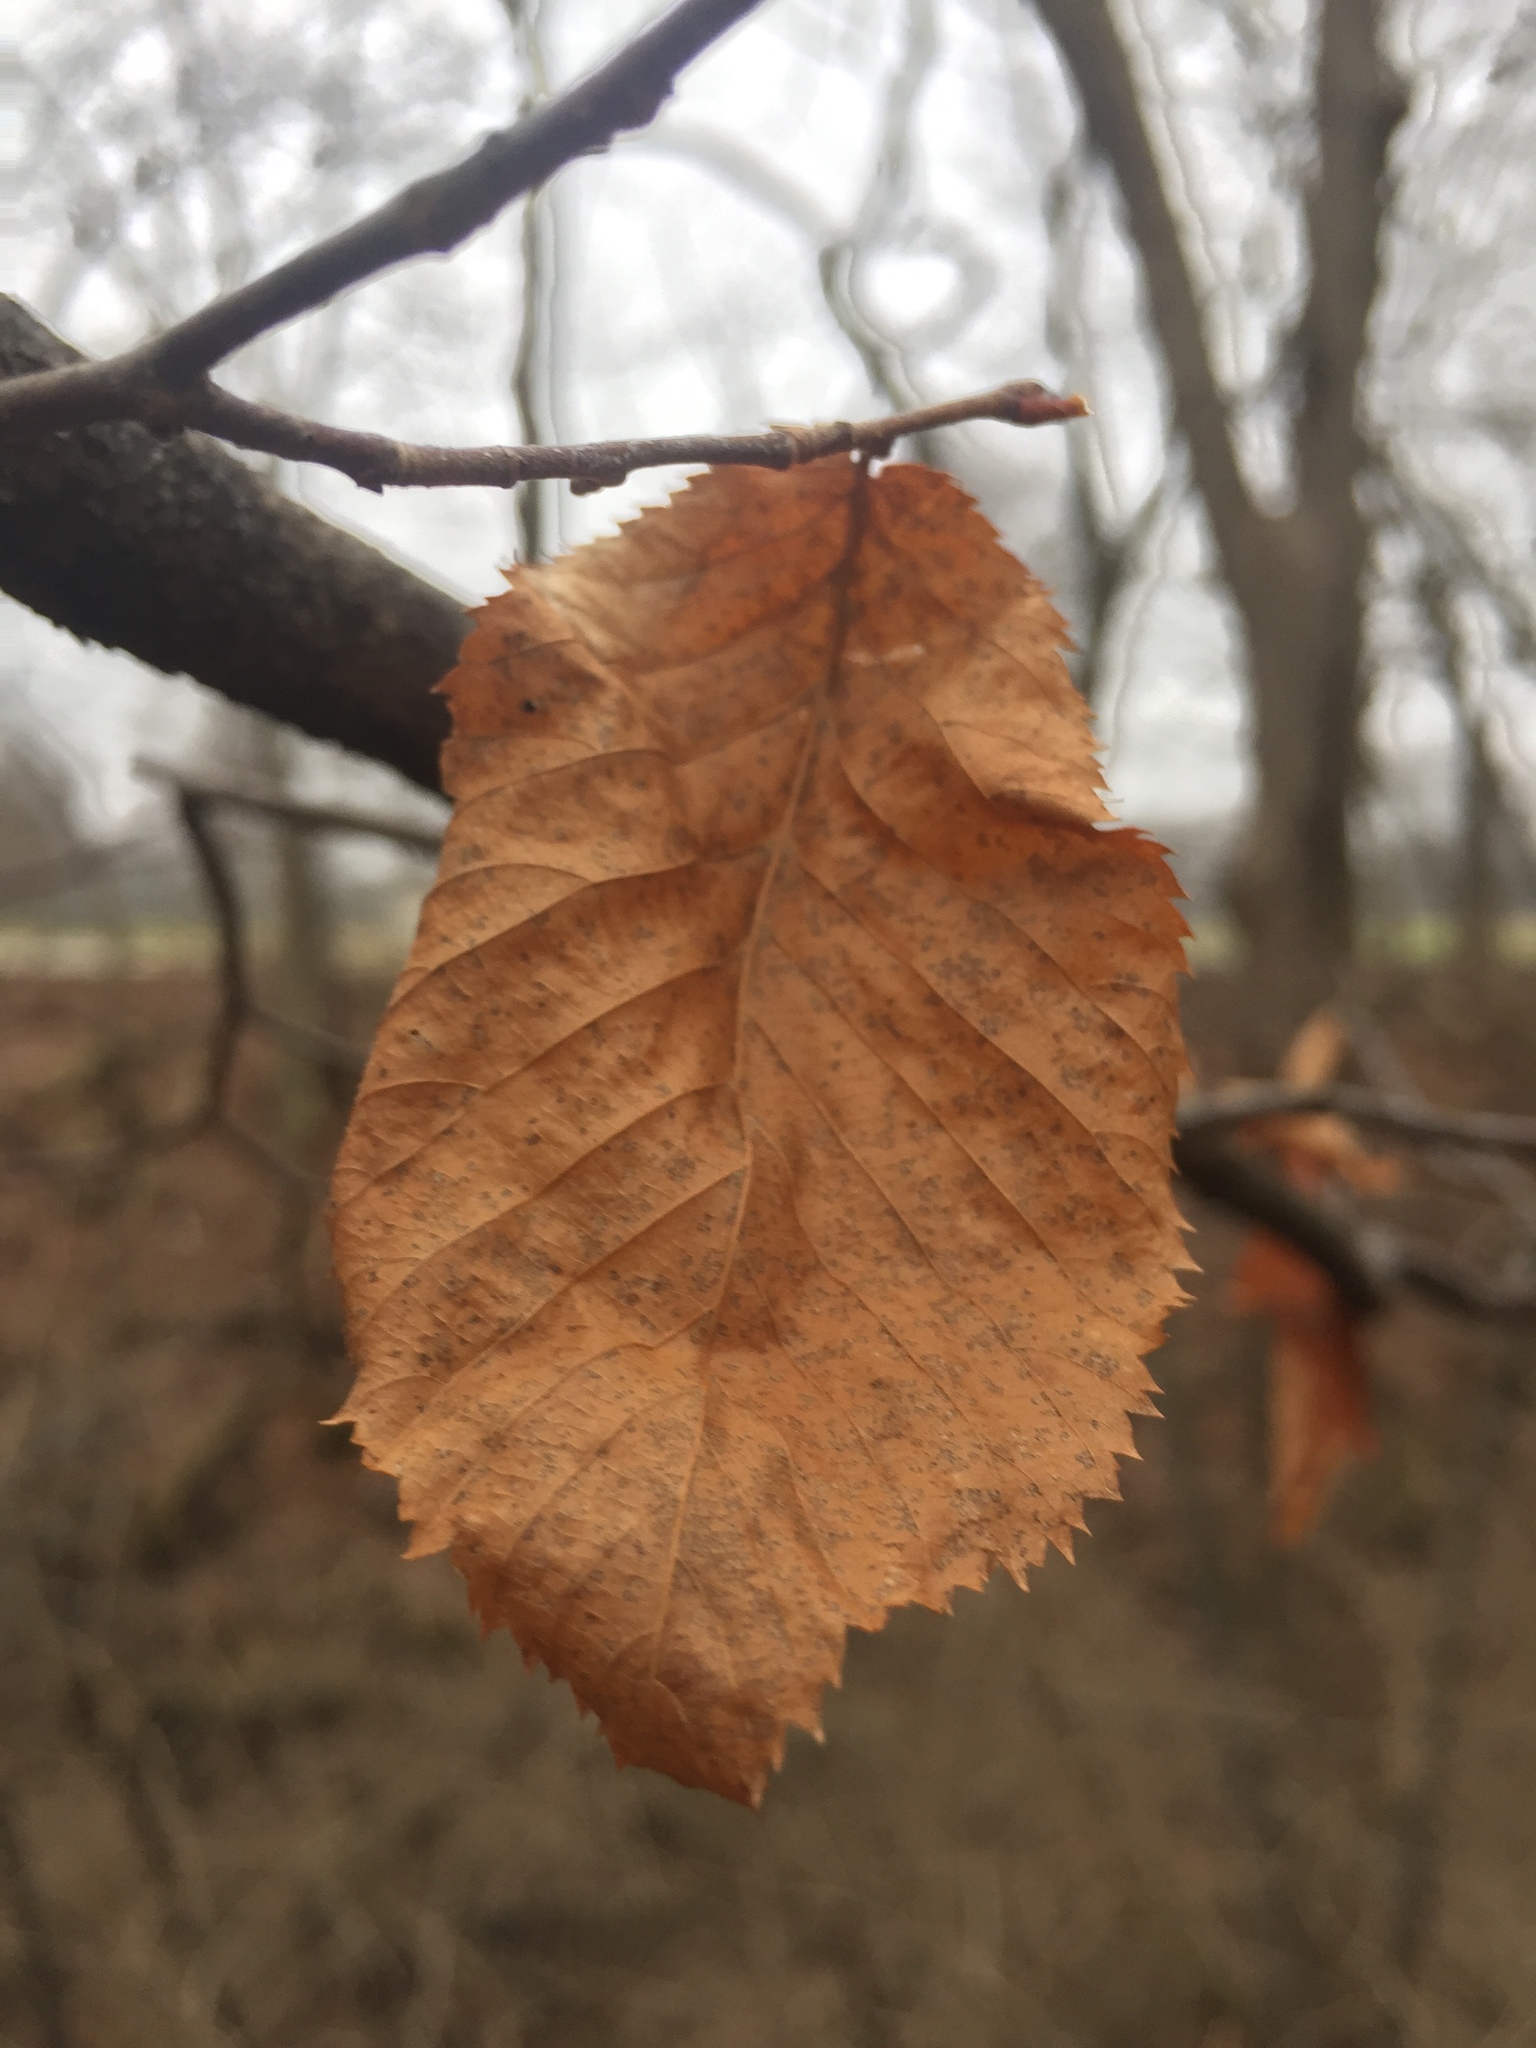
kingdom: Plantae
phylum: Tracheophyta
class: Magnoliopsida
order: Fagales
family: Betulaceae
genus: Ostrya
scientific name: Ostrya virginiana
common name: Ironwood
